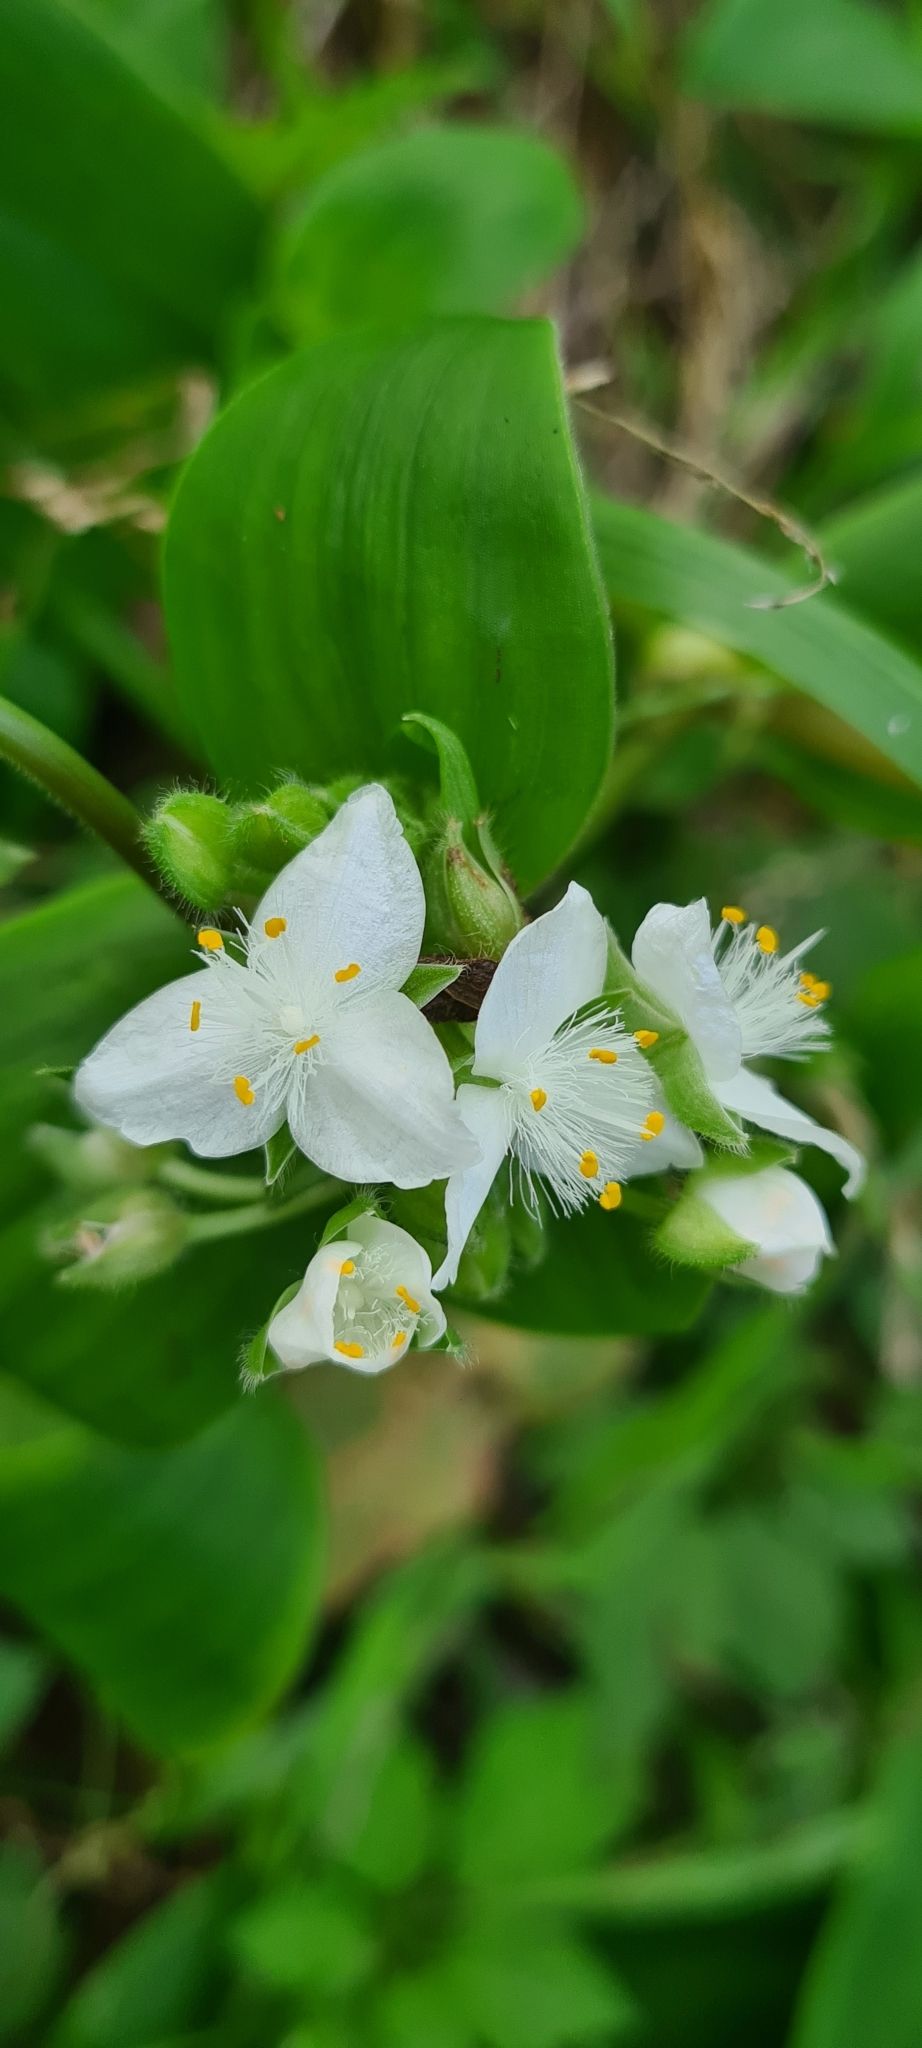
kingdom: Plantae
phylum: Tracheophyta
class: Liliopsida
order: Commelinales
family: Commelinaceae
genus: Tradescantia
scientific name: Tradescantia fluminensis
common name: Wandering-jew
